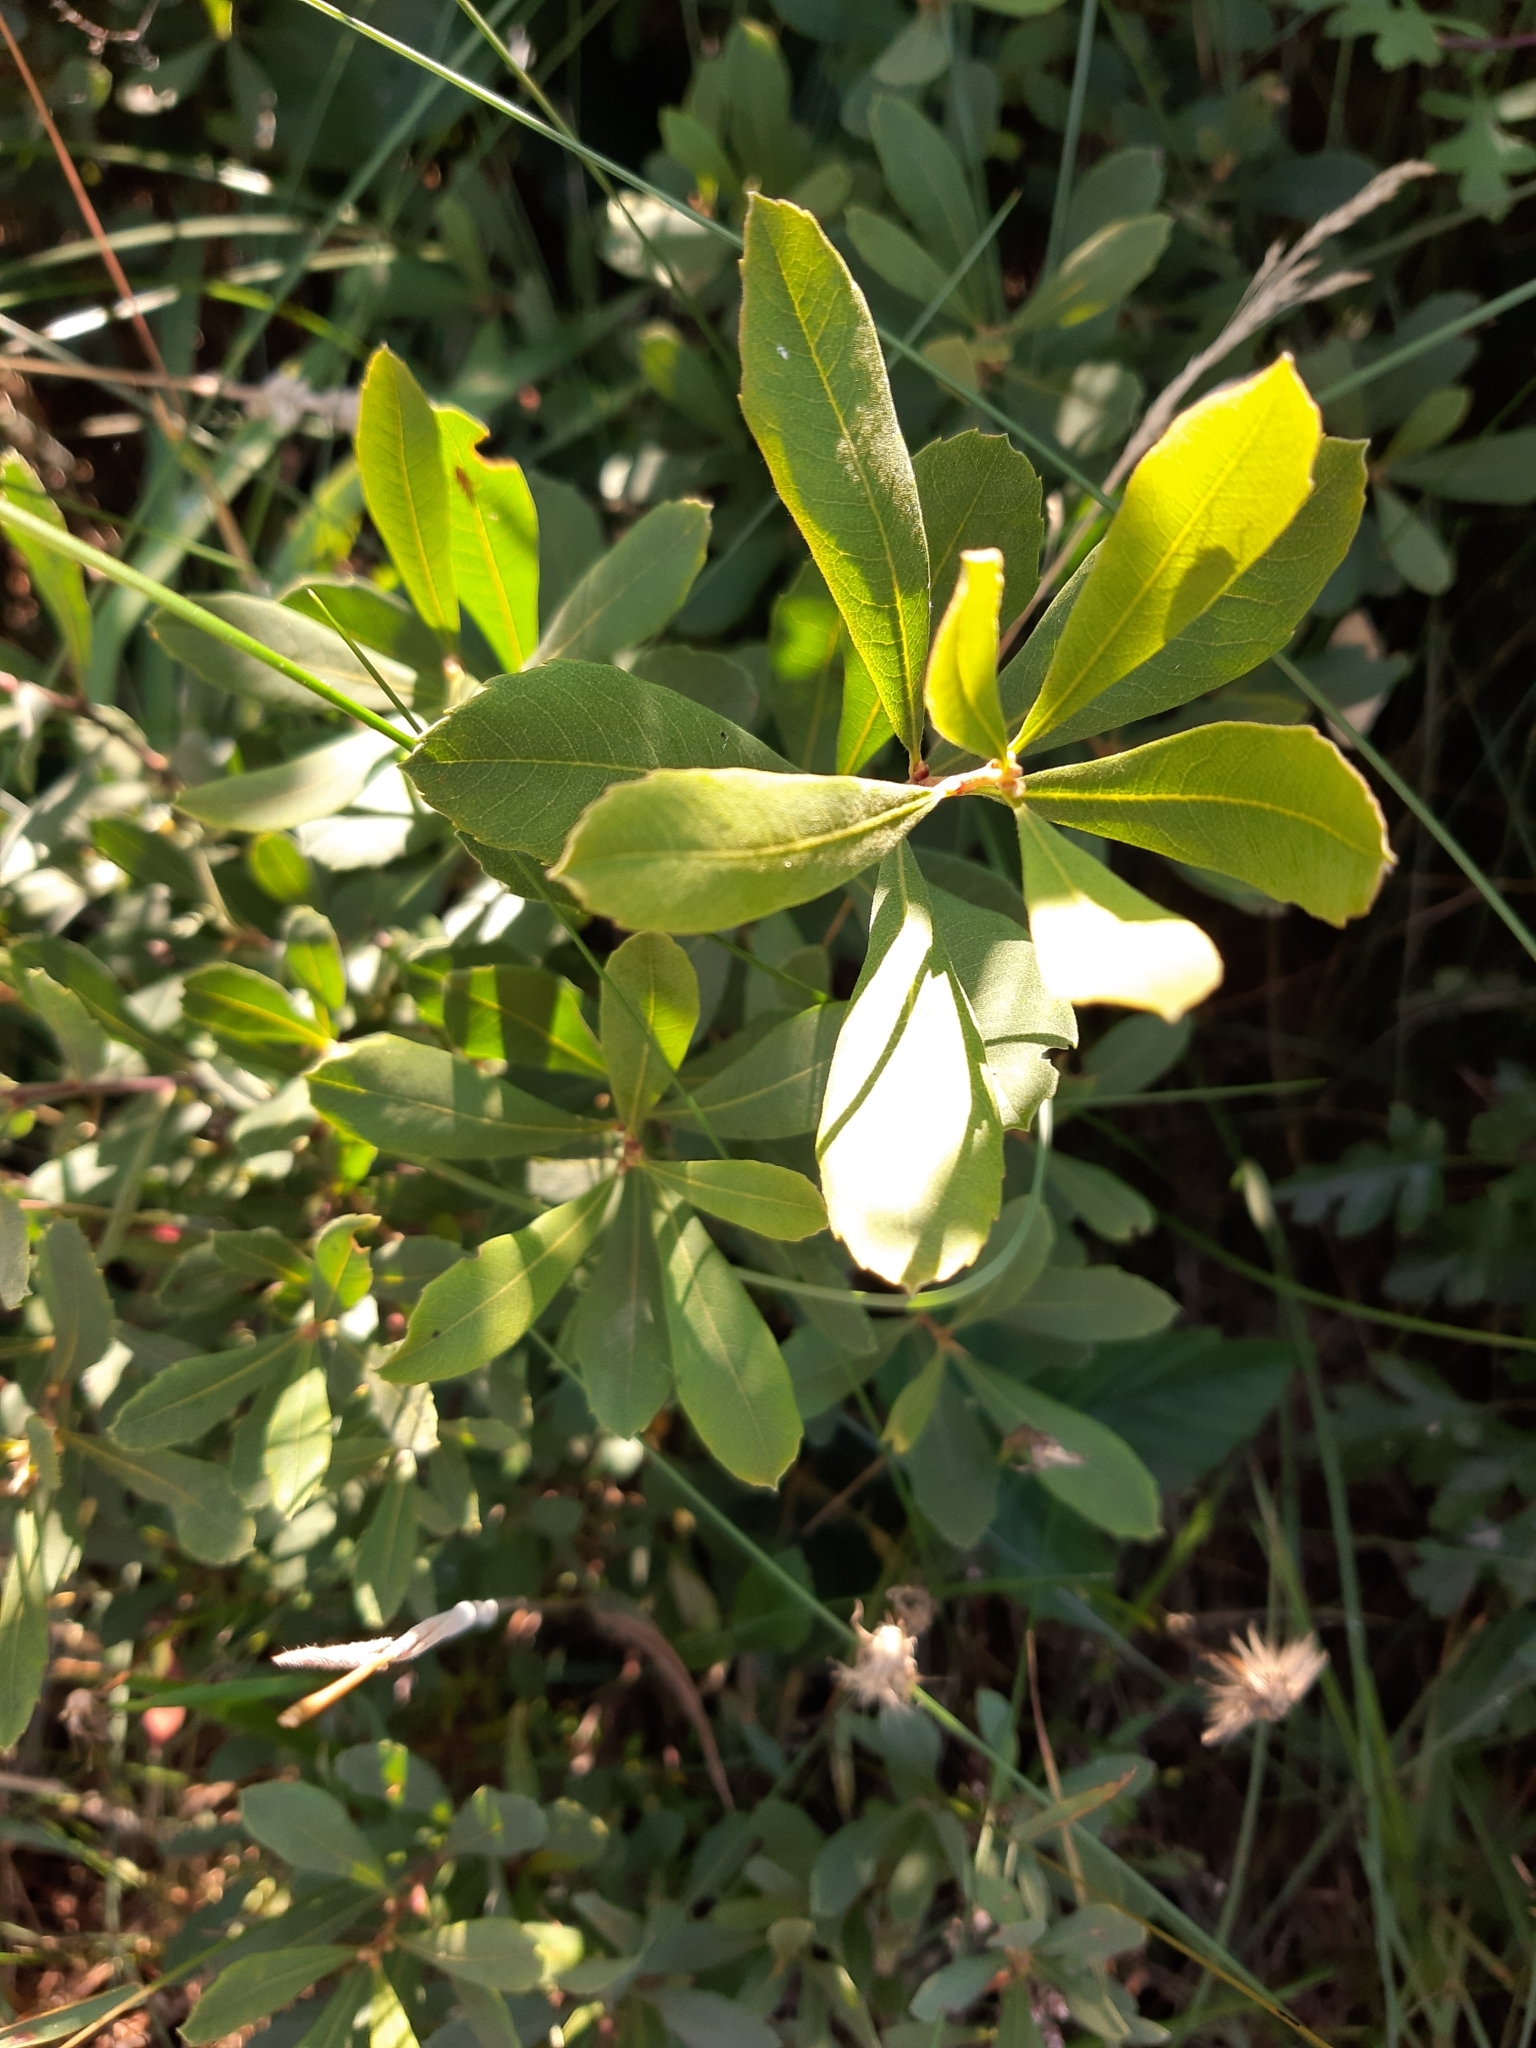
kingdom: Plantae
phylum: Tracheophyta
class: Magnoliopsida
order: Fagales
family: Myricaceae
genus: Myrica
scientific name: Myrica gale
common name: Sweet gale
